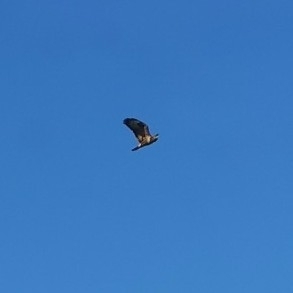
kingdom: Animalia
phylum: Chordata
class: Aves
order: Accipitriformes
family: Accipitridae
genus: Buteo
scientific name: Buteo buteo
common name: Common buzzard
